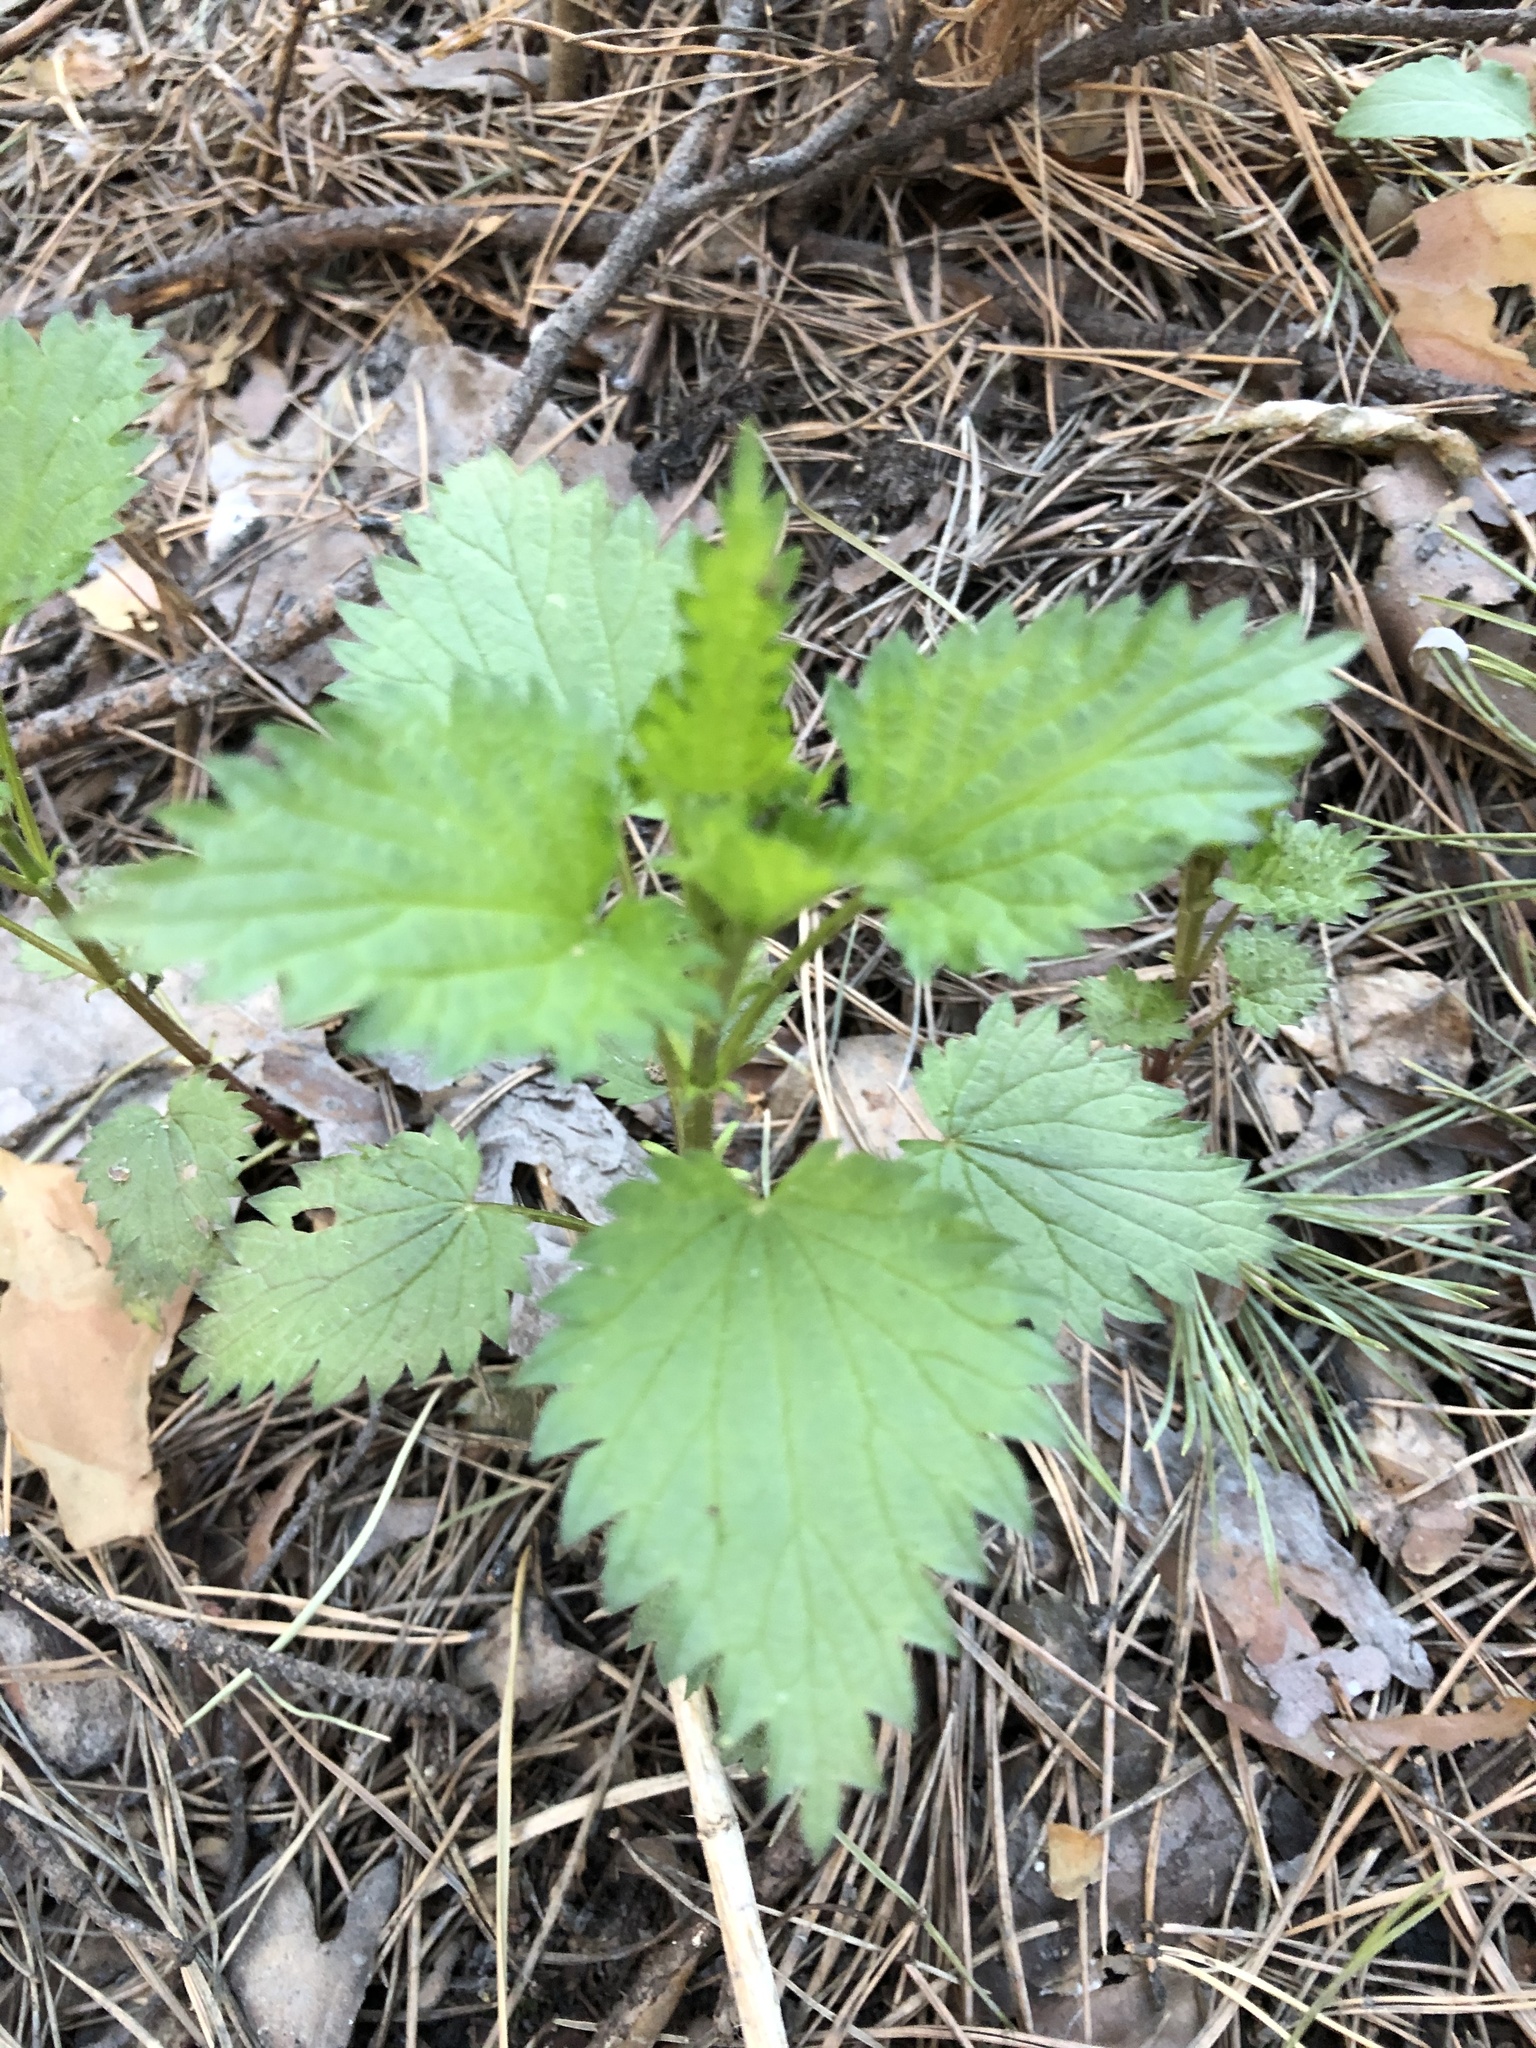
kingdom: Plantae
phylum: Tracheophyta
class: Magnoliopsida
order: Rosales
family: Urticaceae
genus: Urtica
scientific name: Urtica dioica
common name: Common nettle
